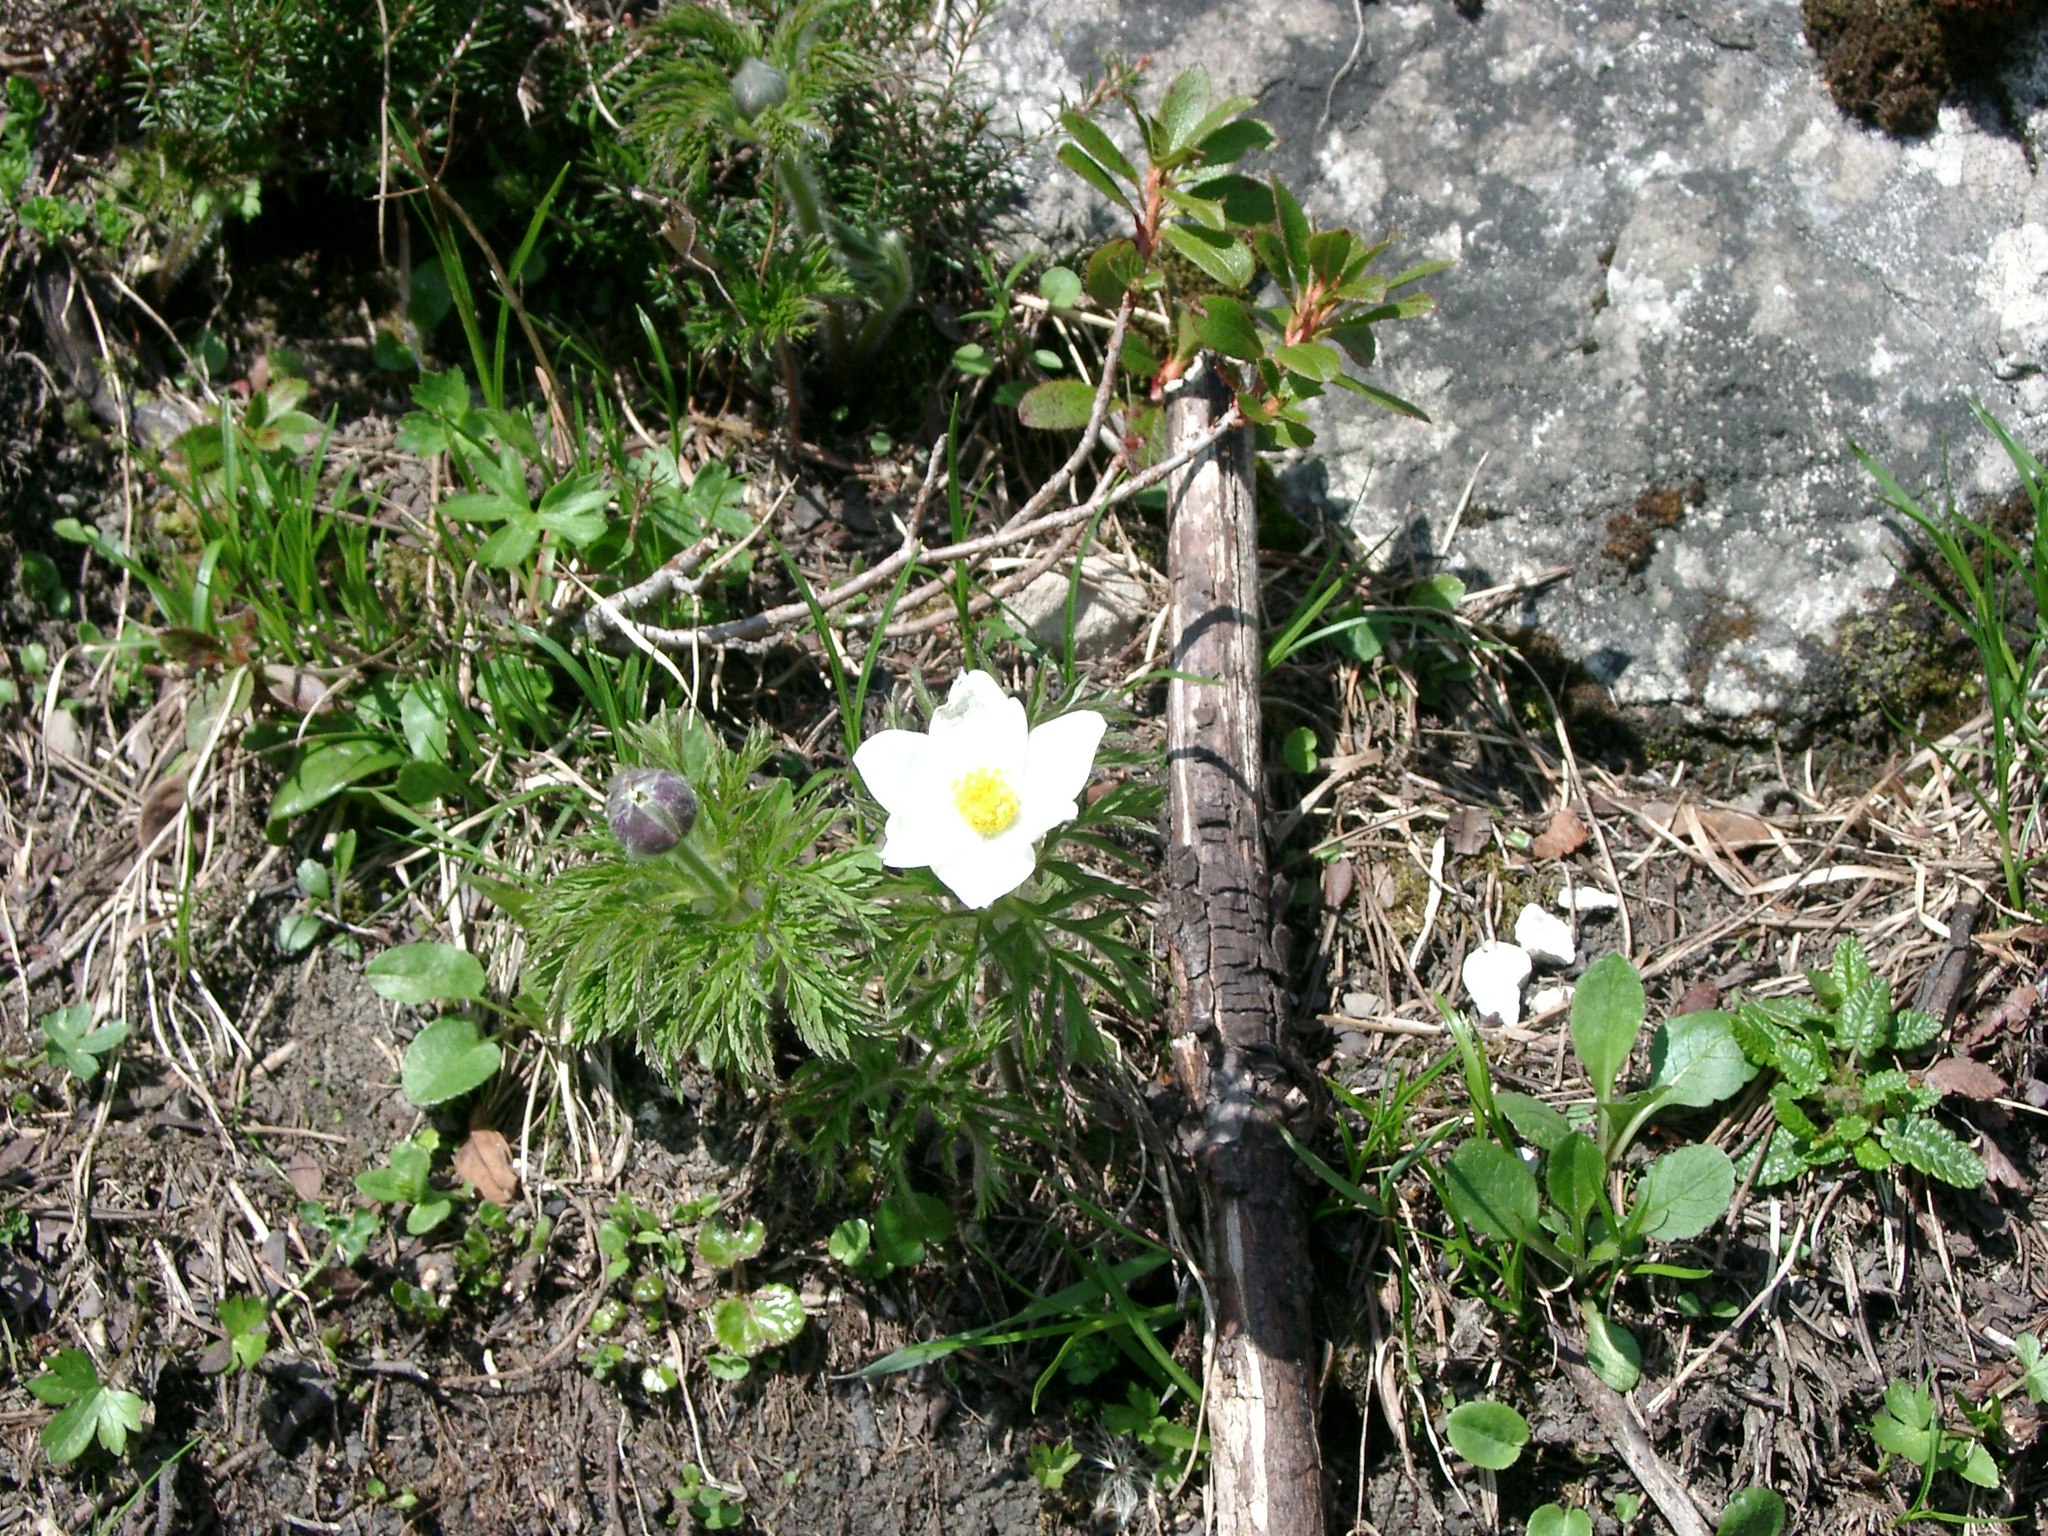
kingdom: Plantae
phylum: Tracheophyta
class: Magnoliopsida
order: Ranunculales
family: Ranunculaceae
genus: Pulsatilla
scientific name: Pulsatilla alpina
